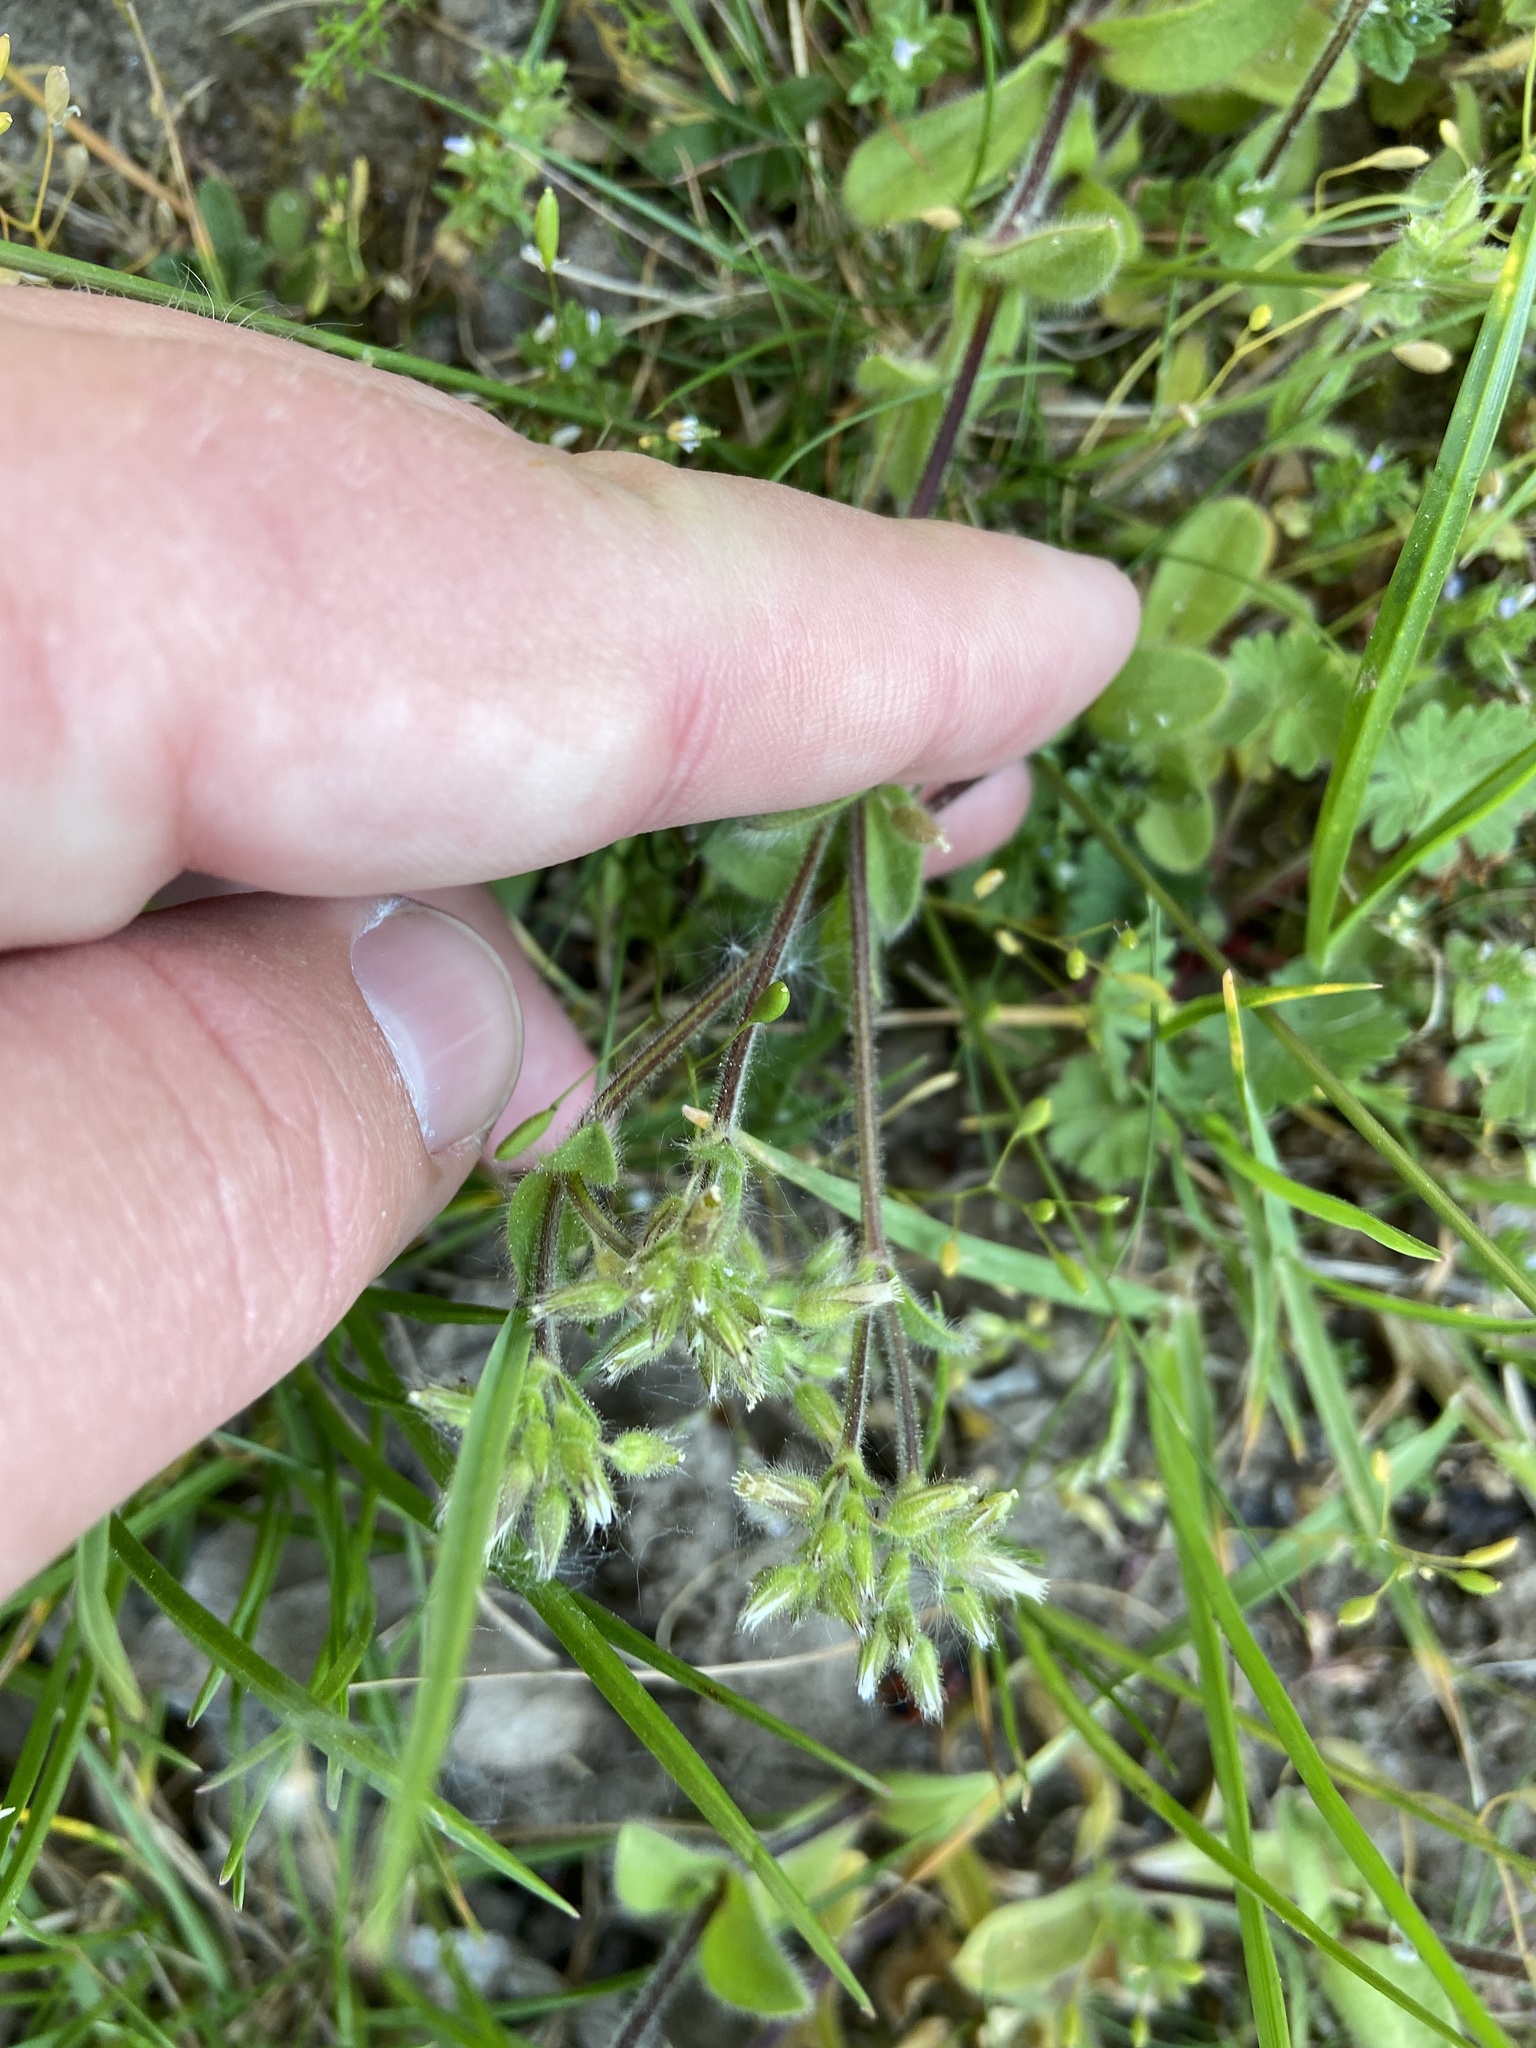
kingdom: Plantae
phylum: Tracheophyta
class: Magnoliopsida
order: Caryophyllales
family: Caryophyllaceae
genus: Cerastium
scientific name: Cerastium glomeratum
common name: Sticky chickweed
